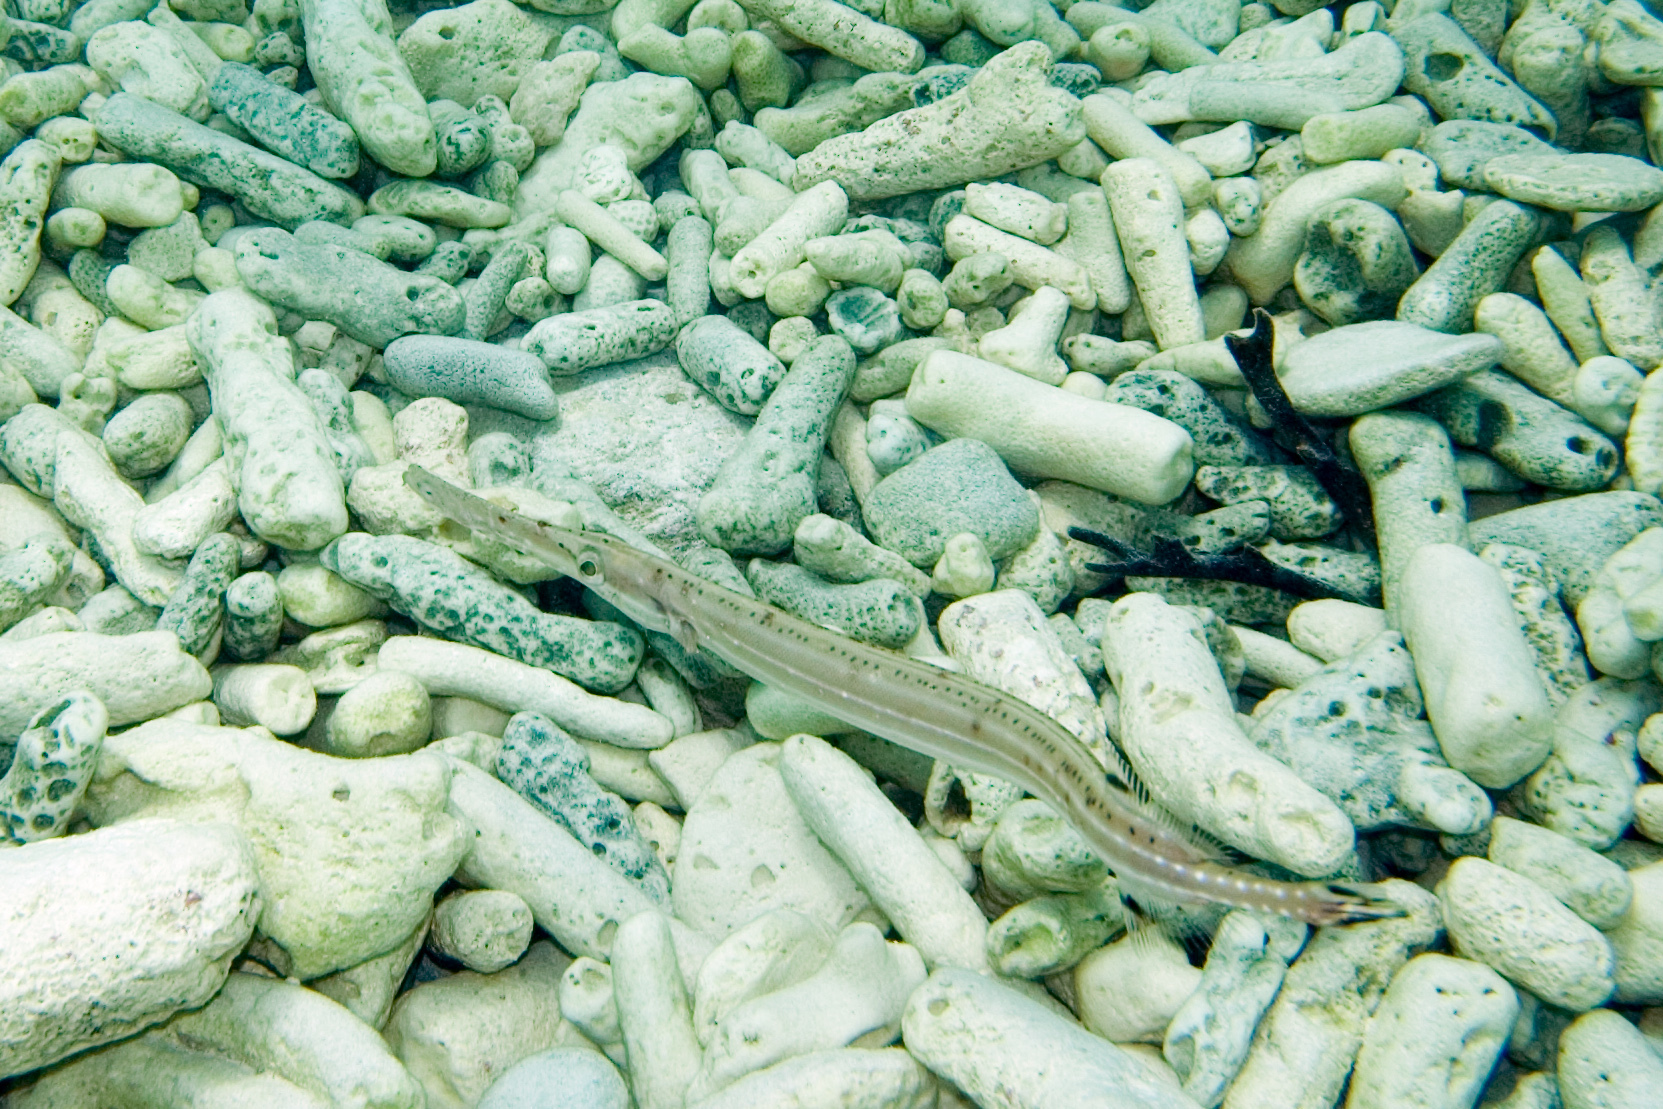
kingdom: Animalia
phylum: Chordata
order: Syngnathiformes
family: Aulostomidae
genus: Aulostomus
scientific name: Aulostomus maculatus
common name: West atlantic trumpetfish
